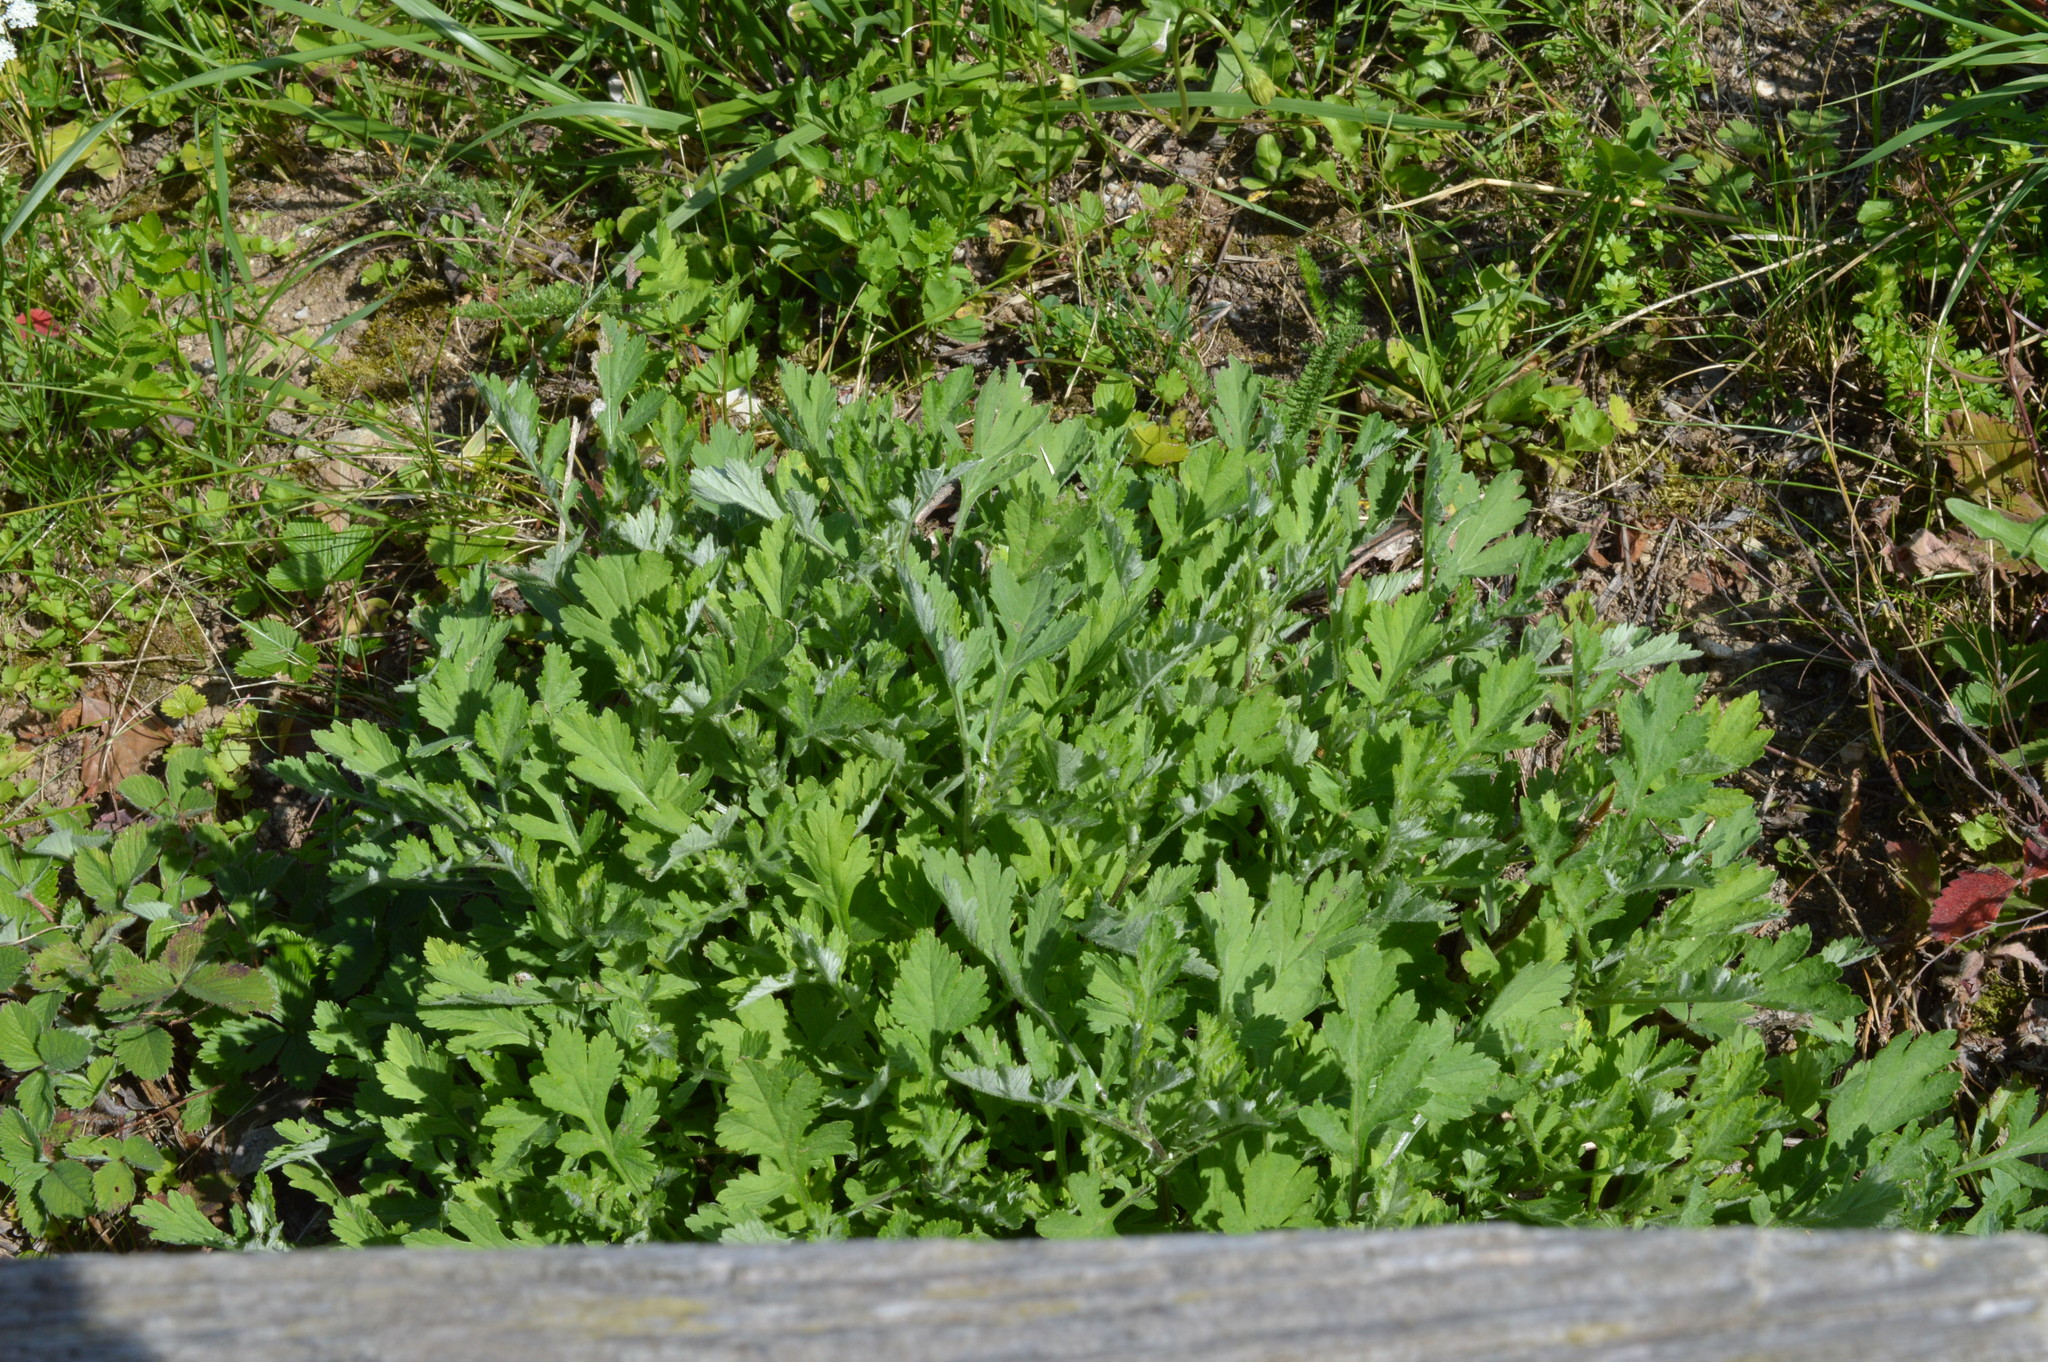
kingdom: Plantae
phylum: Tracheophyta
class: Magnoliopsida
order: Asterales
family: Asteraceae
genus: Artemisia
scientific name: Artemisia vulgaris
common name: Mugwort
